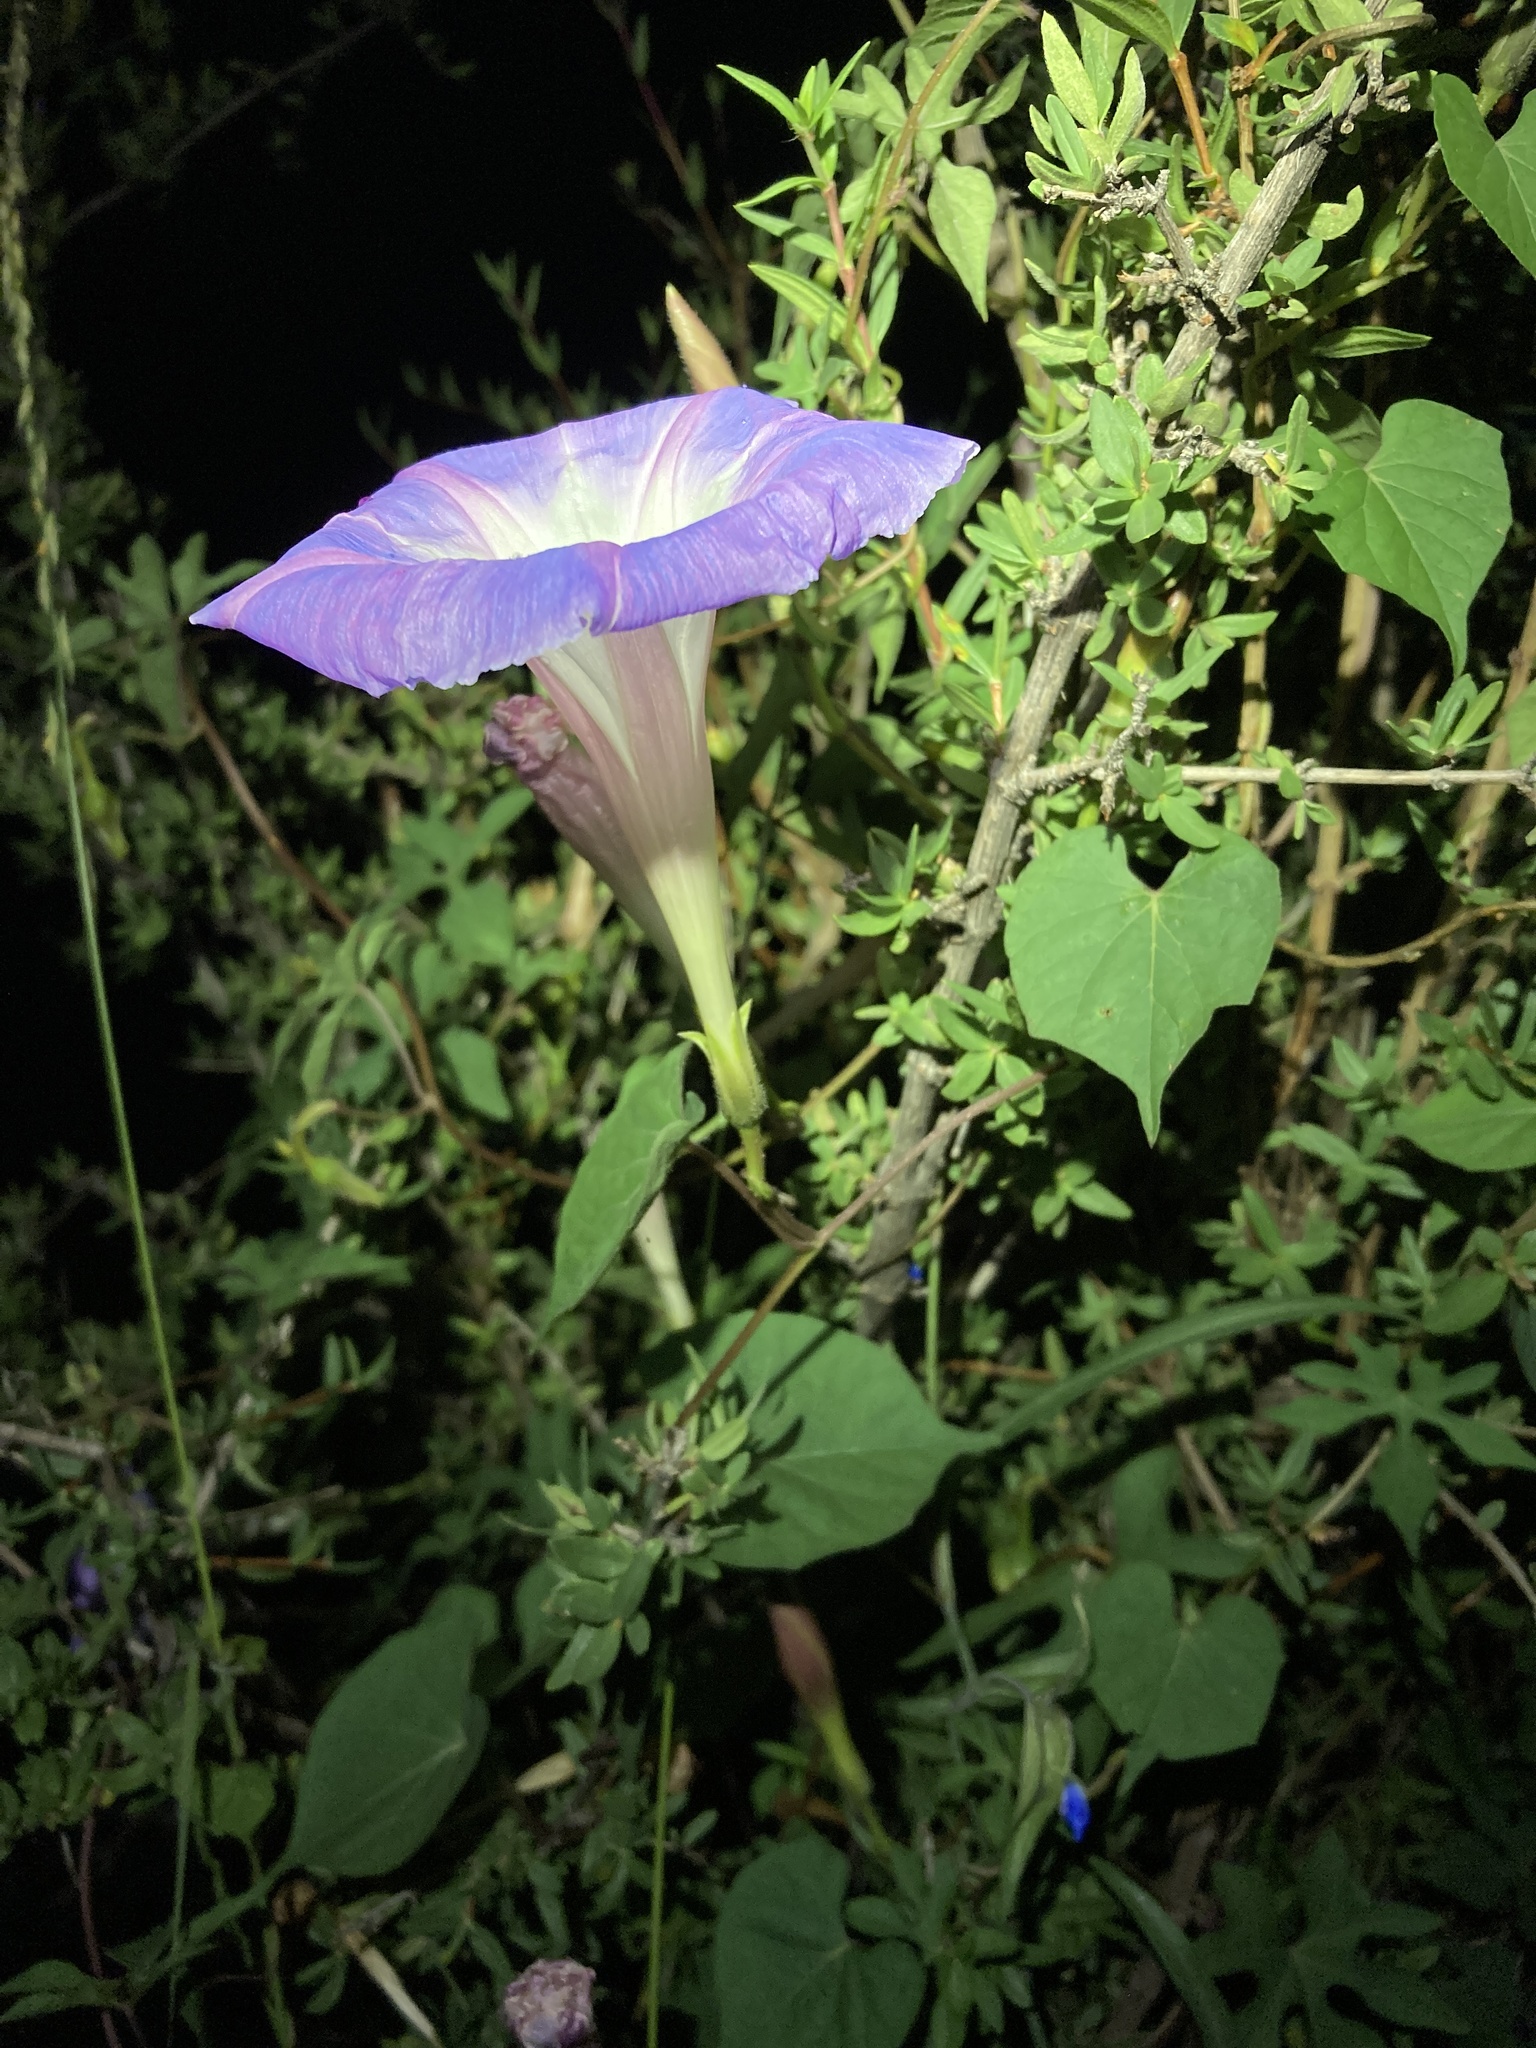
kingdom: Plantae
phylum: Tracheophyta
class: Magnoliopsida
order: Solanales
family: Convolvulaceae
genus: Ipomoea
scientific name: Ipomoea gilana
